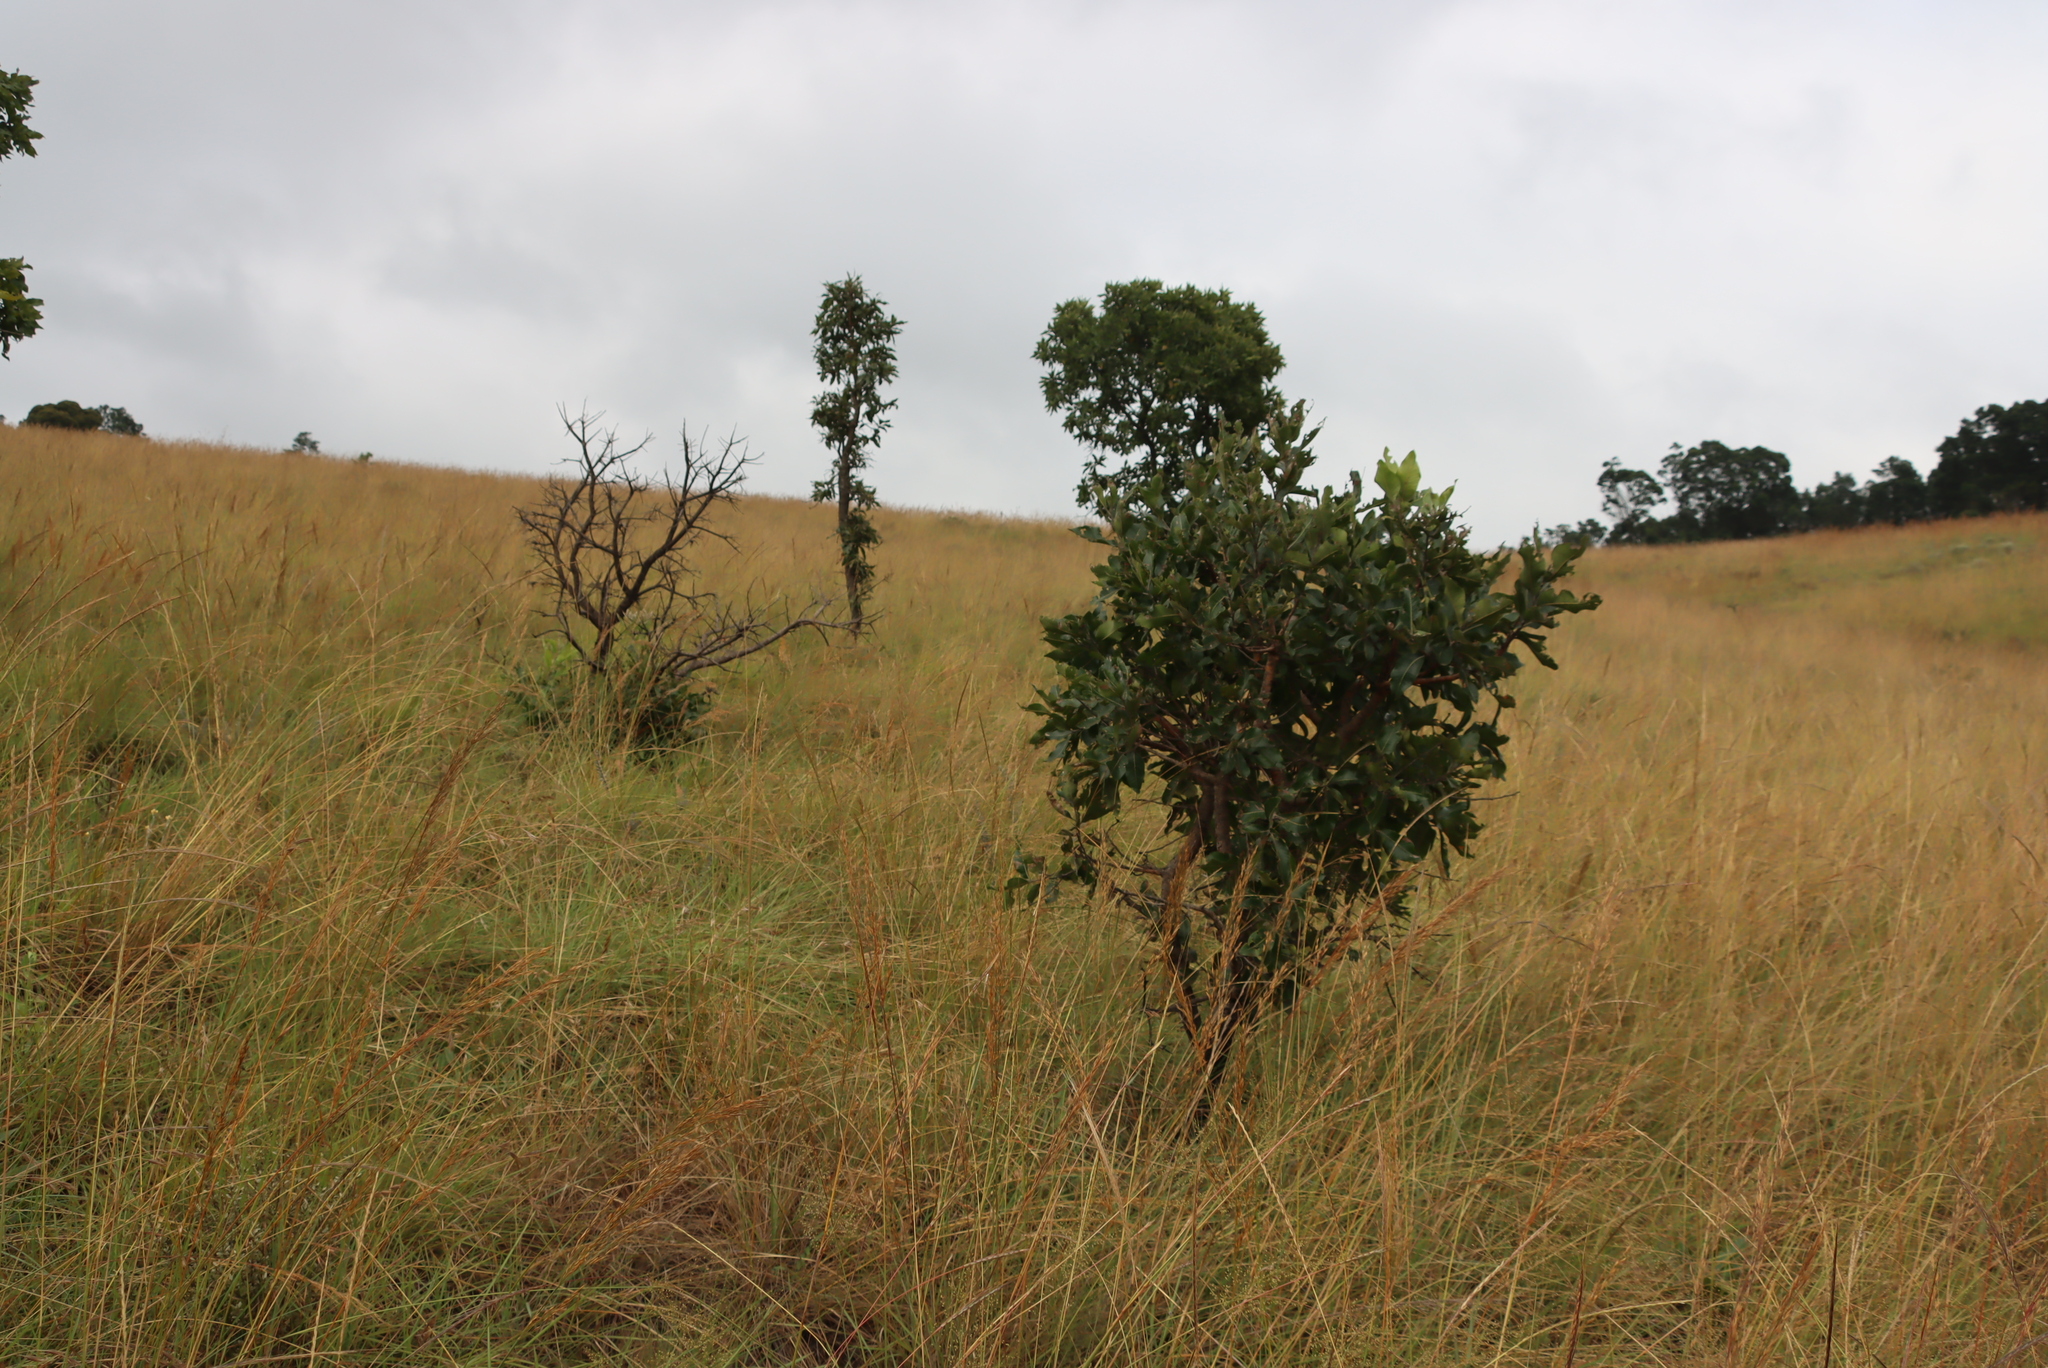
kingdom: Plantae
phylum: Tracheophyta
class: Magnoliopsida
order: Proteales
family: Proteaceae
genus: Faurea
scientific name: Faurea rochetiana
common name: Broad-leaved beech
